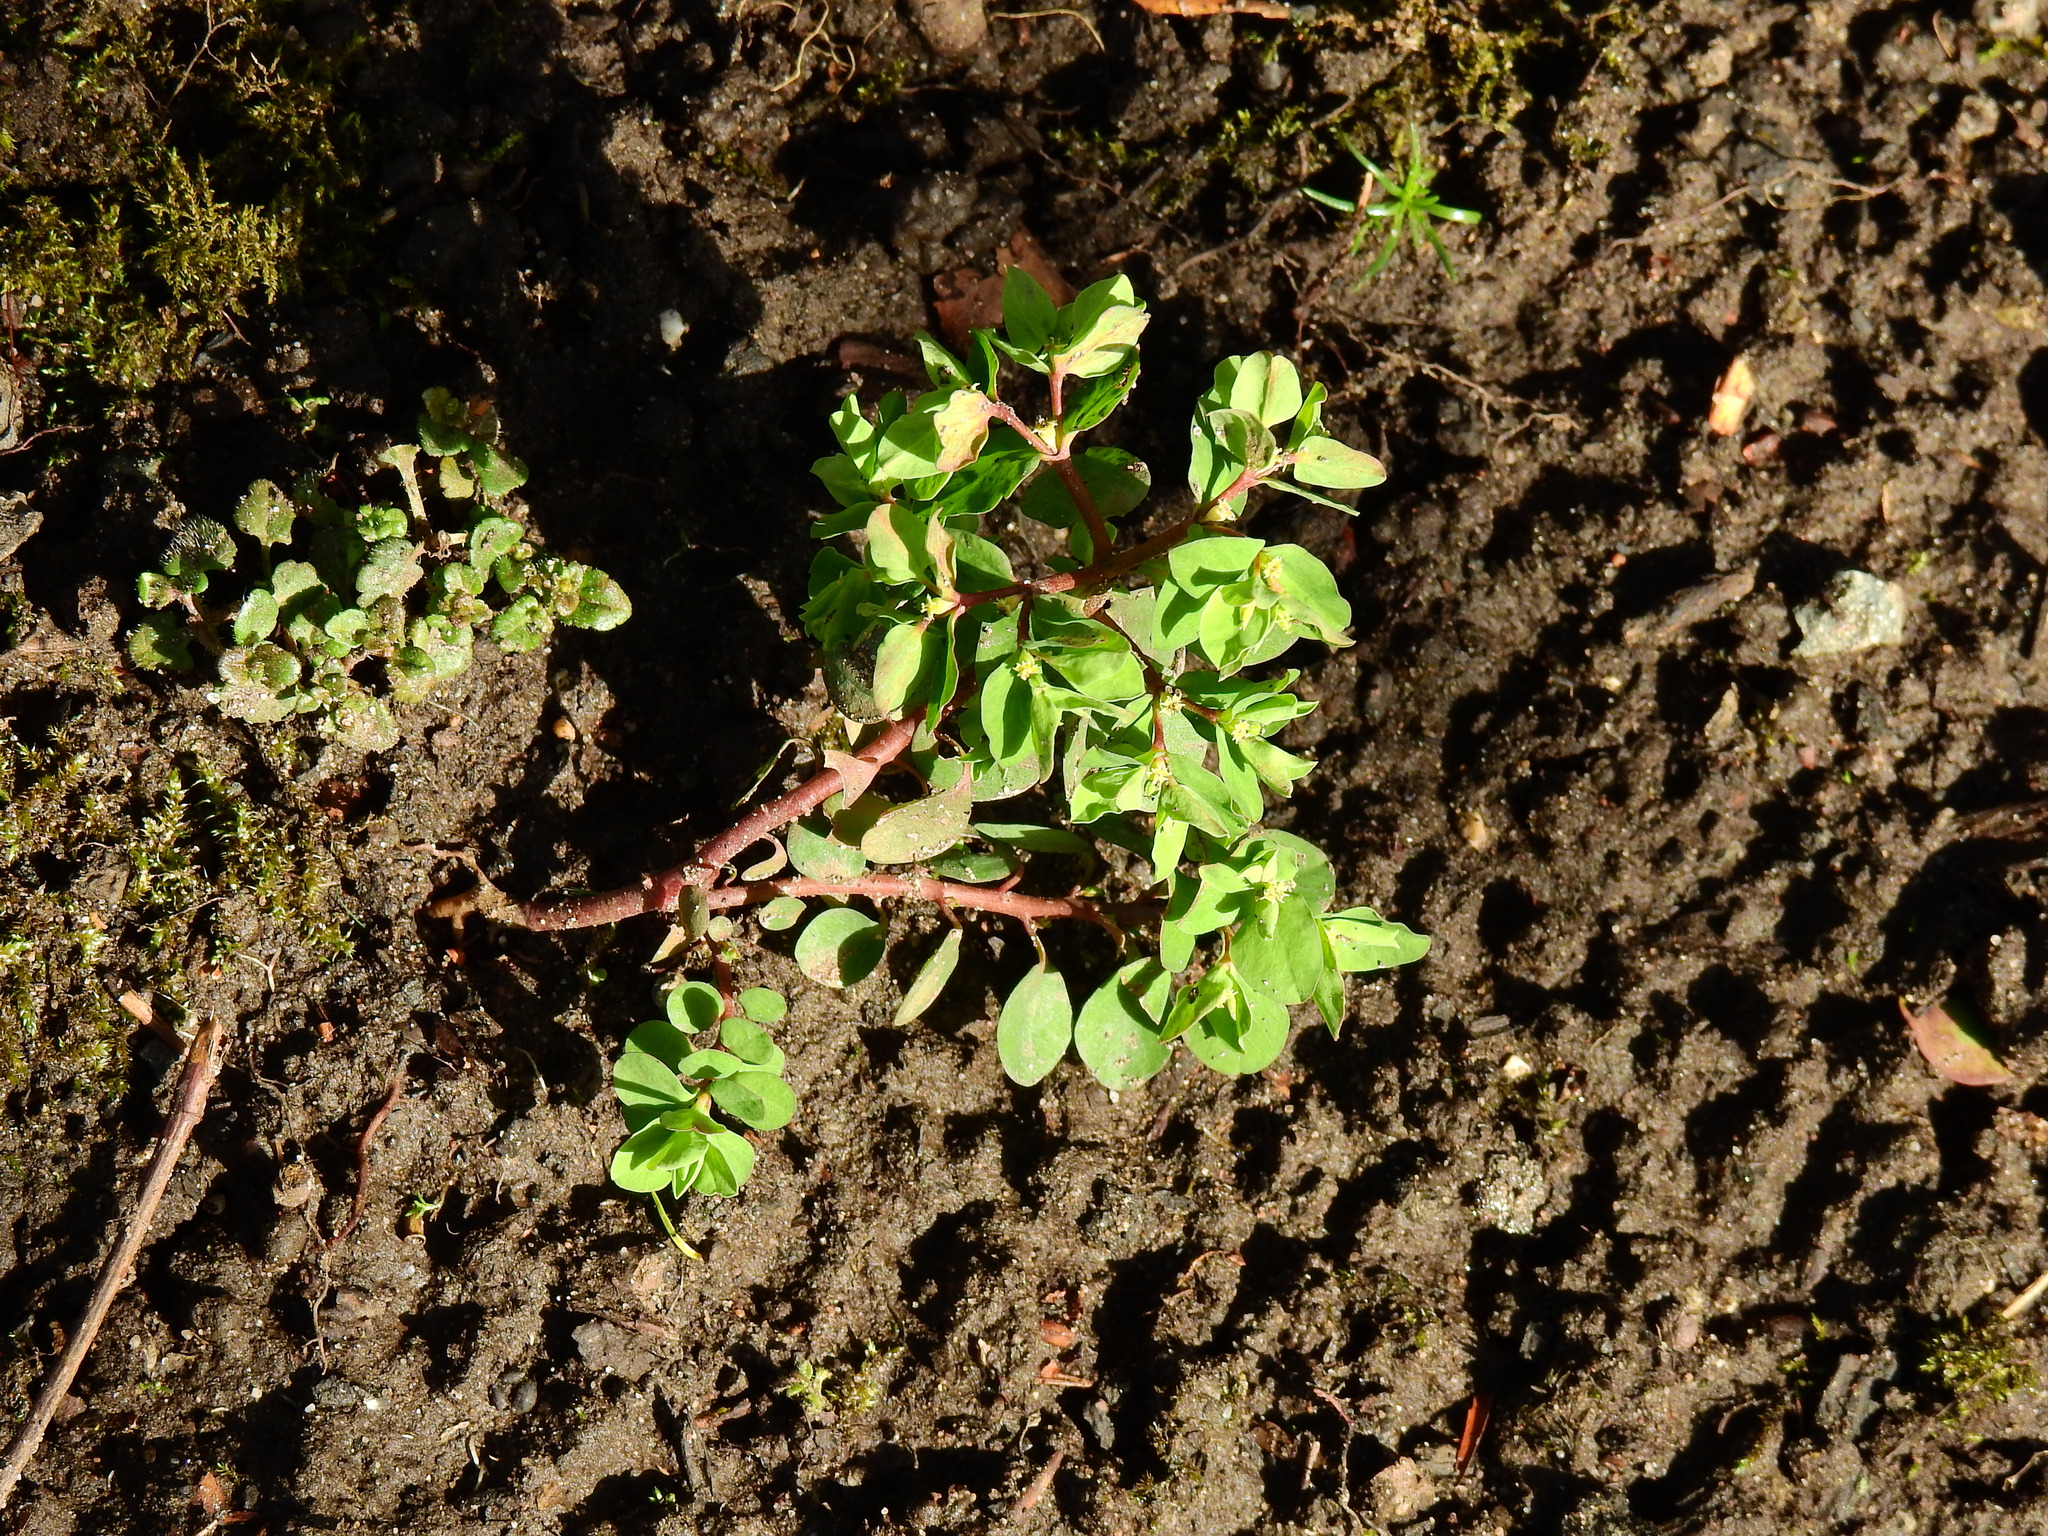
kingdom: Plantae
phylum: Tracheophyta
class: Magnoliopsida
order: Malpighiales
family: Euphorbiaceae
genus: Euphorbia
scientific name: Euphorbia peplus
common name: Petty spurge
